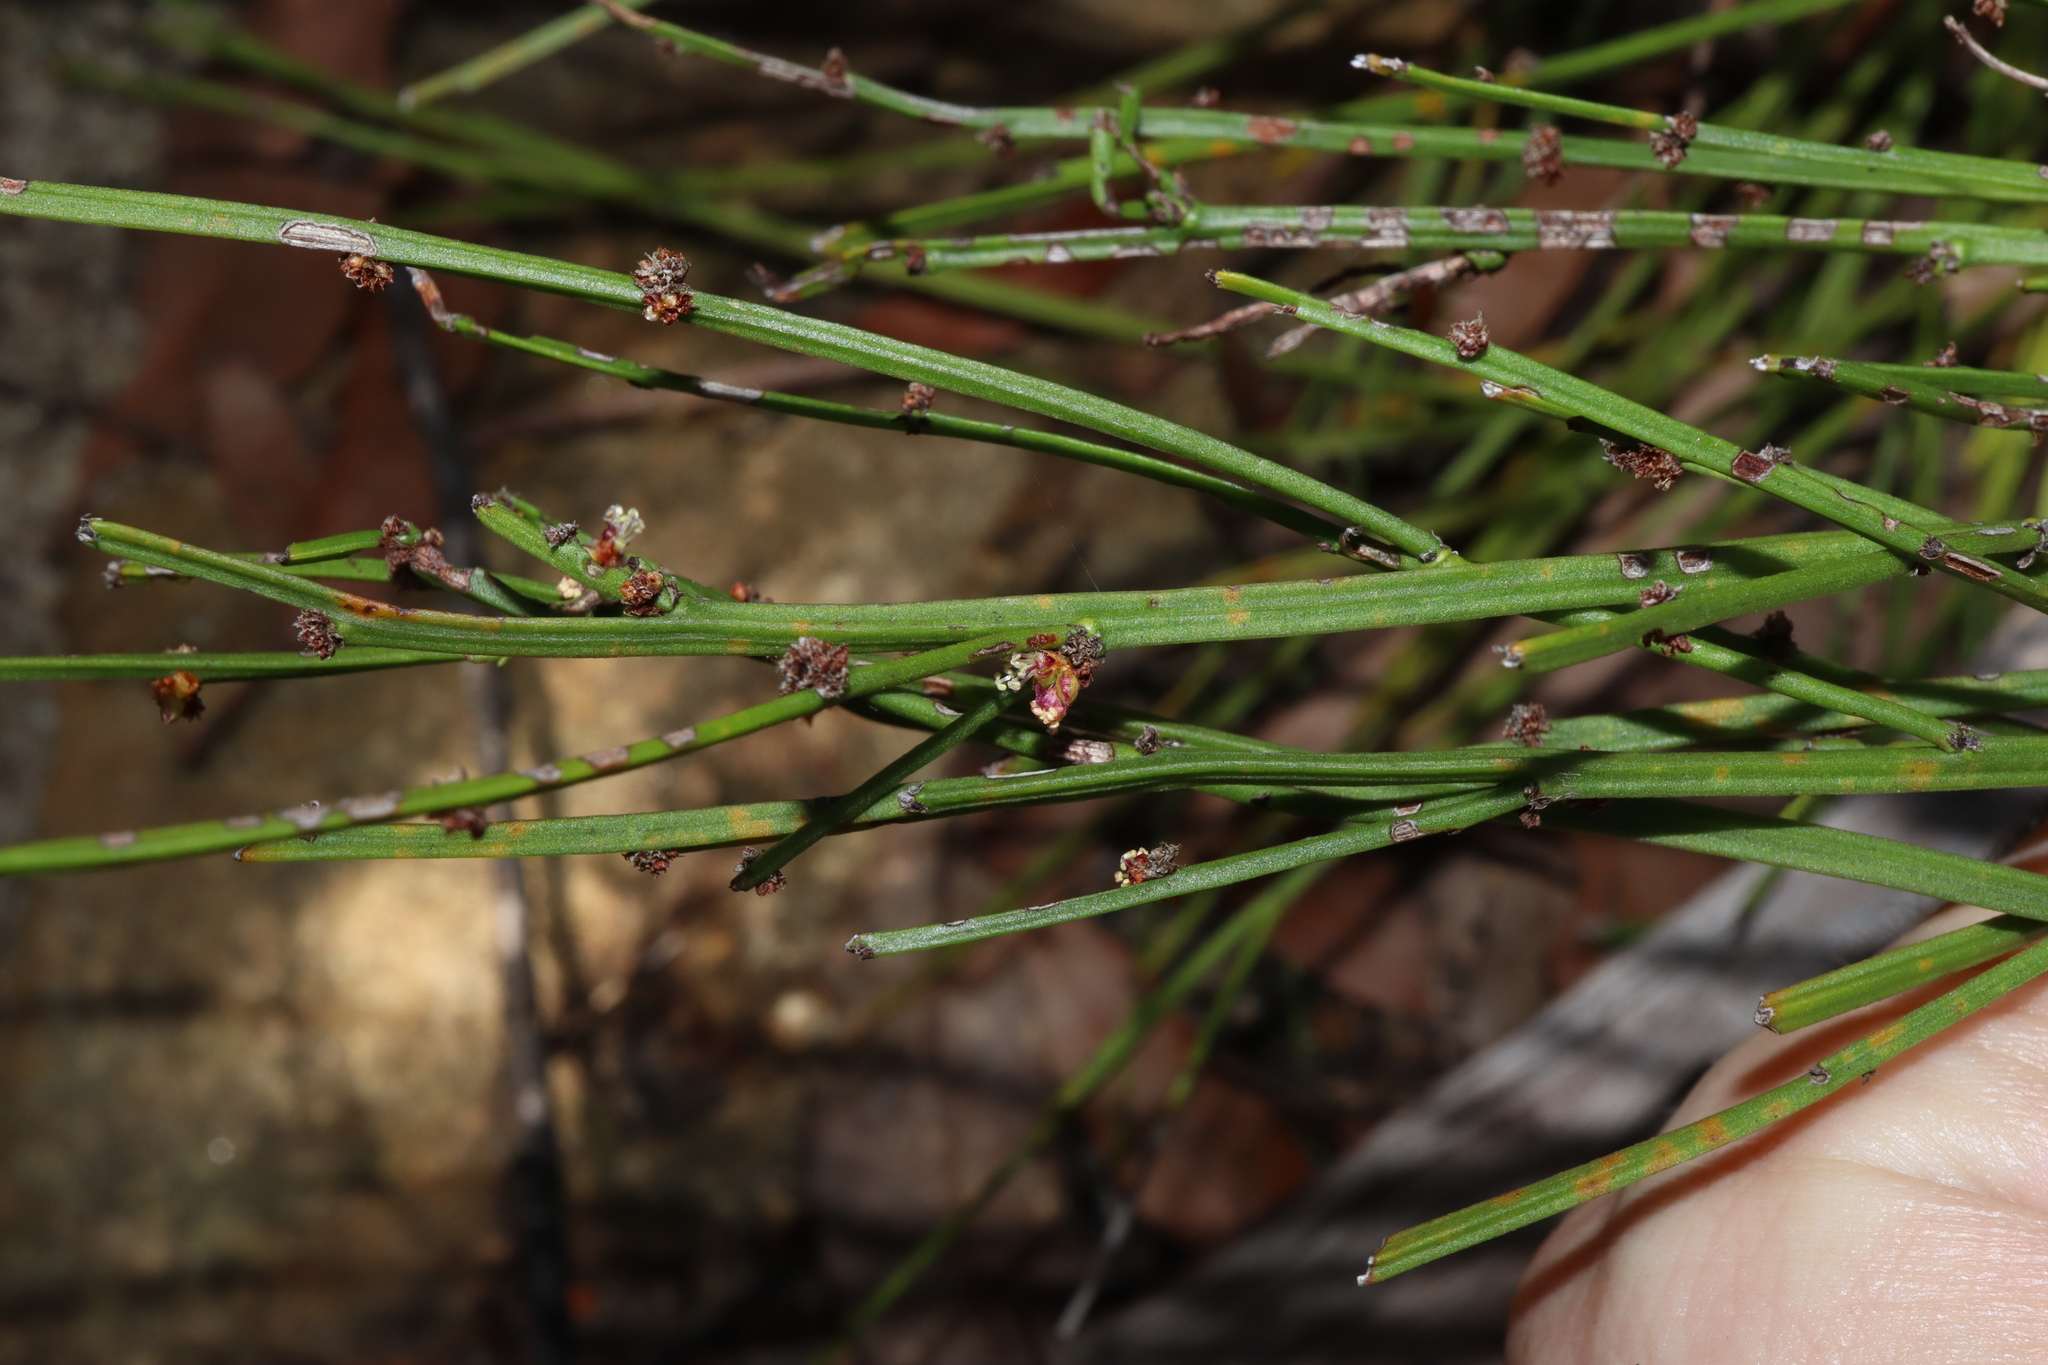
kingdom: Plantae
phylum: Tracheophyta
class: Magnoliopsida
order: Malpighiales
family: Euphorbiaceae
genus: Amperea
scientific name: Amperea xiphoclada
